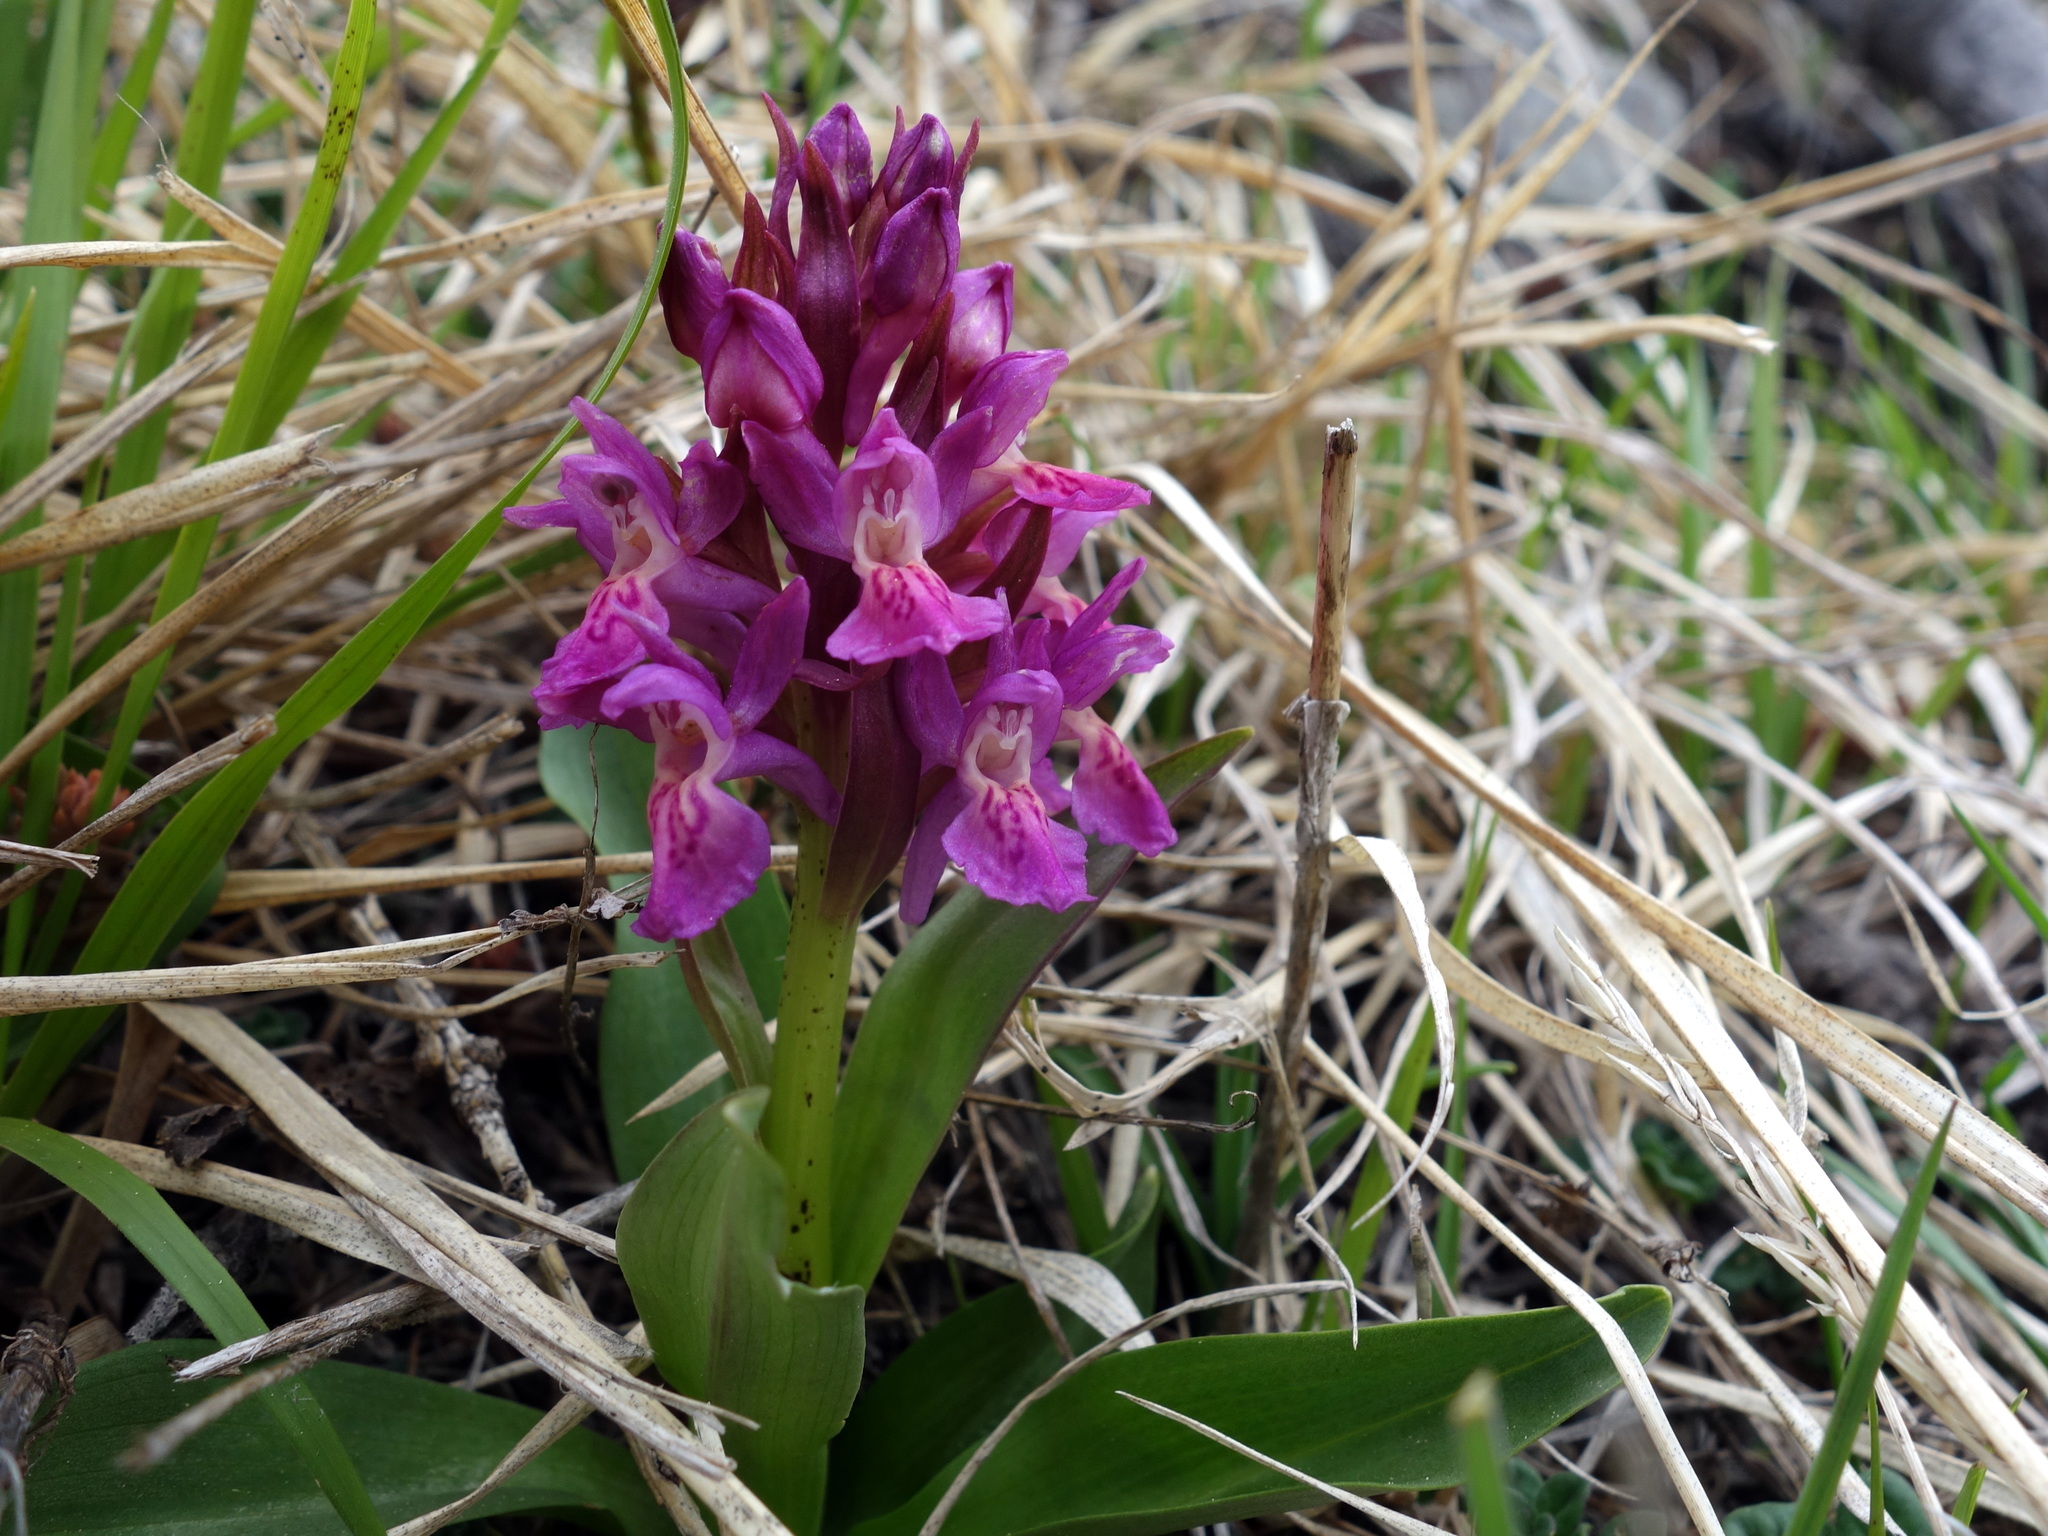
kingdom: Plantae
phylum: Tracheophyta
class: Liliopsida
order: Asparagales
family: Orchidaceae
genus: Dactylorhiza
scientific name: Dactylorhiza sambucina
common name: Elder-flowered orchid
